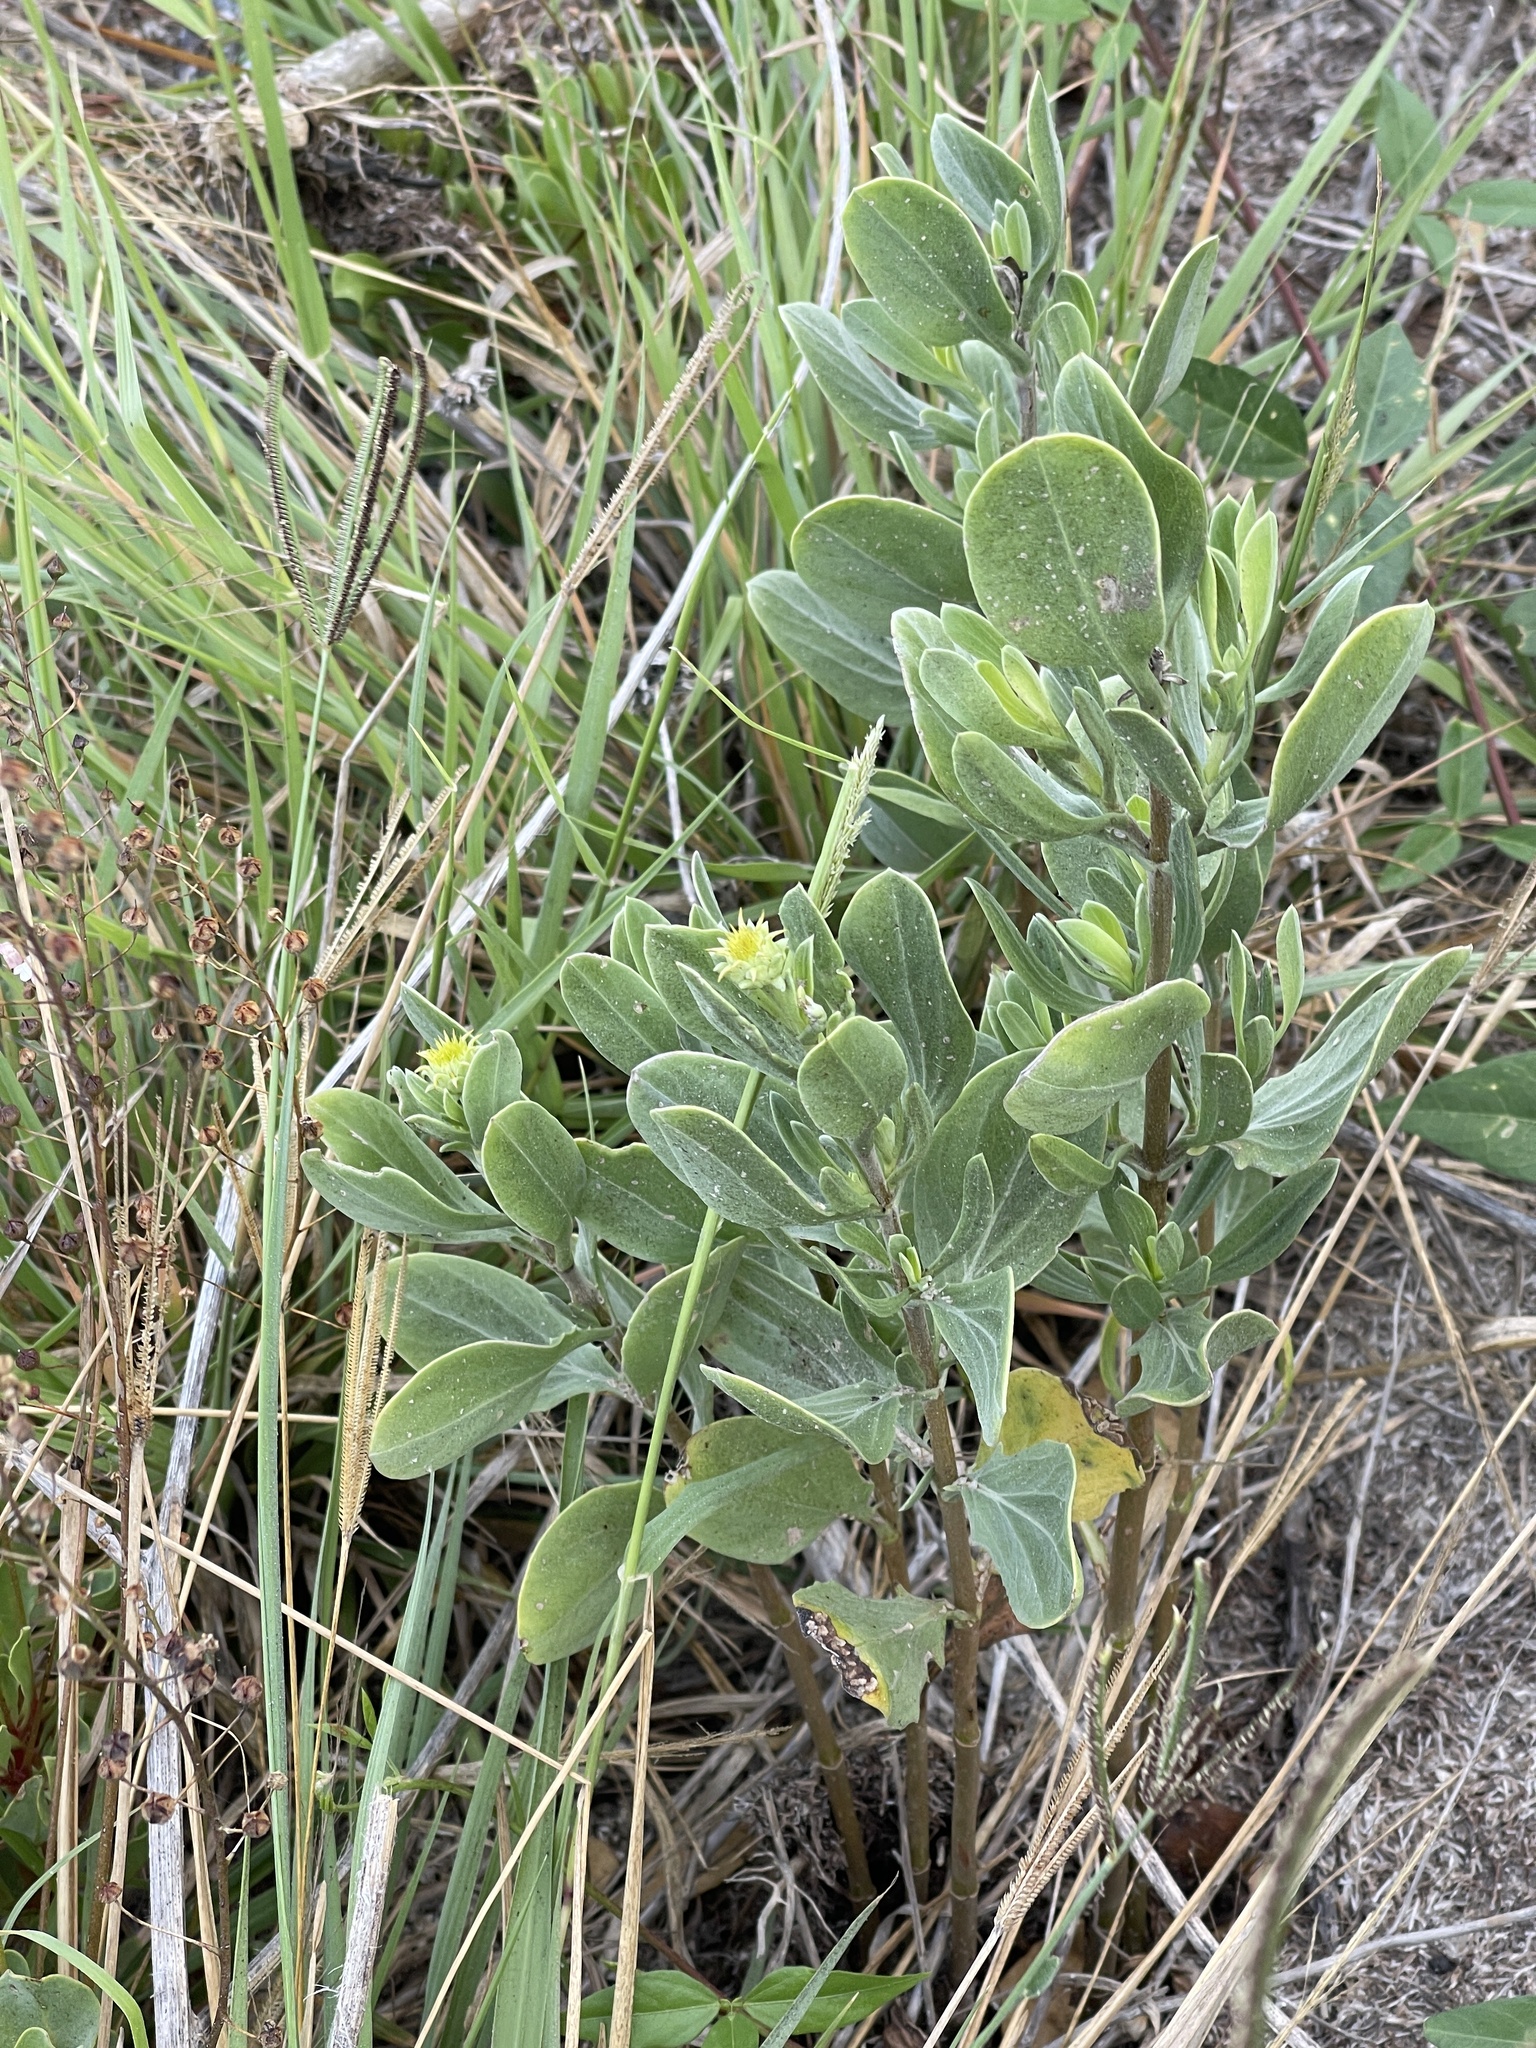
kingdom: Plantae
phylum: Tracheophyta
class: Magnoliopsida
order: Asterales
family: Asteraceae
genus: Borrichia
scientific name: Borrichia frutescens
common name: Sea oxeye
